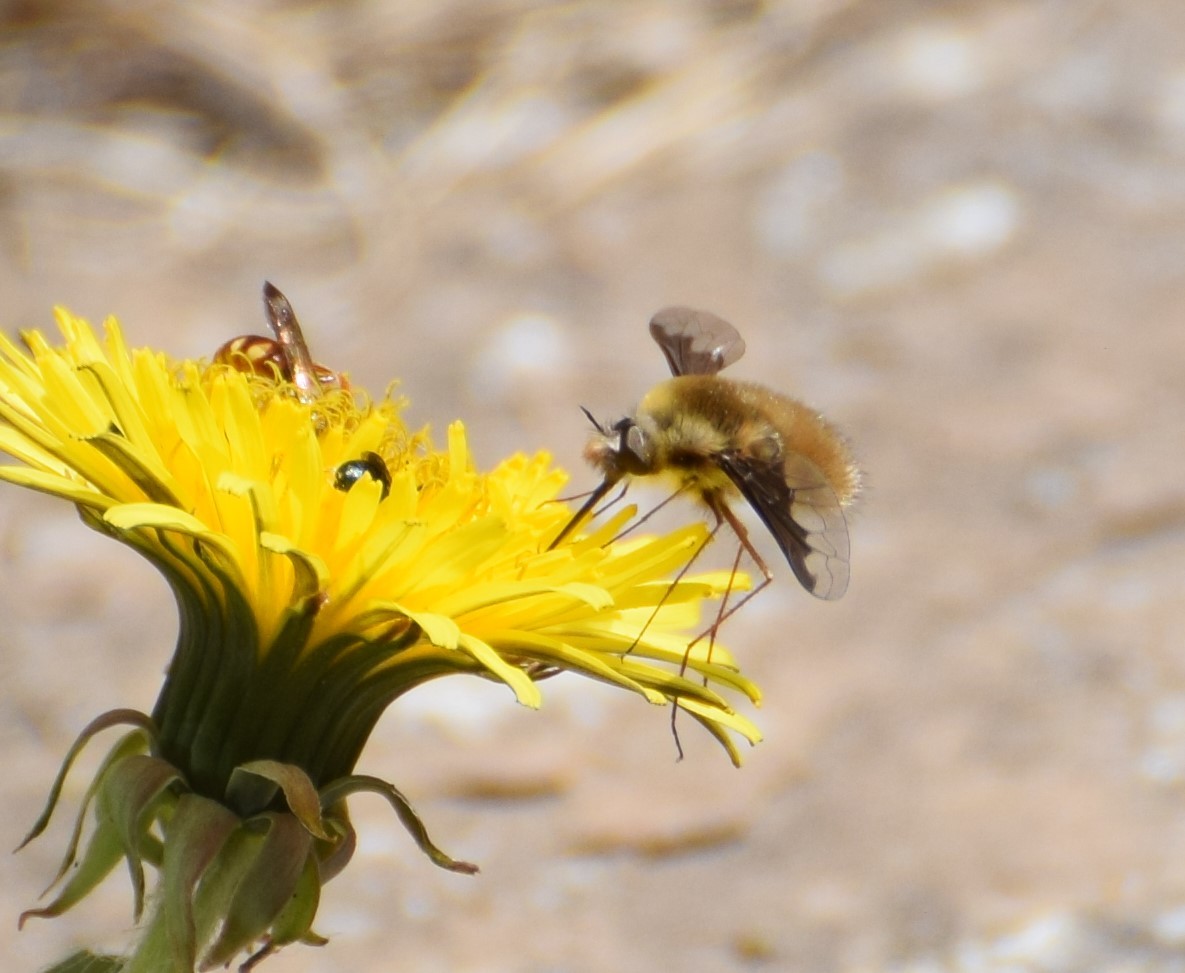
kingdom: Animalia
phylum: Arthropoda
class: Insecta
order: Diptera
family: Bombyliidae
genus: Bombylius
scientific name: Bombylius major
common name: Bee fly
